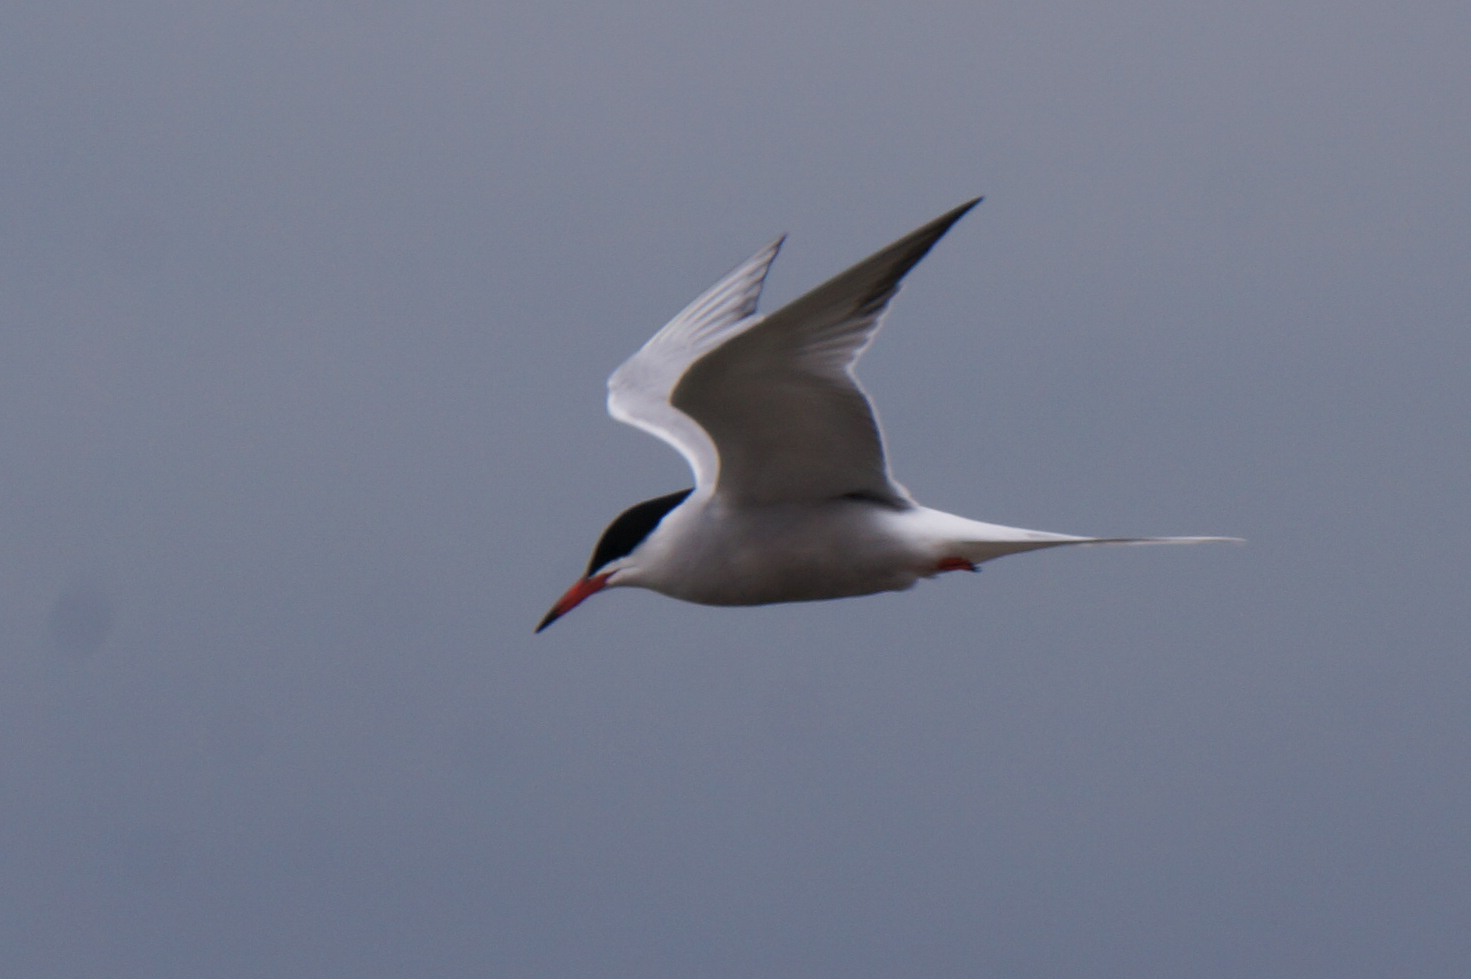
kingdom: Animalia
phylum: Chordata
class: Aves
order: Charadriiformes
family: Laridae
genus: Sterna
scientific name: Sterna hirundo
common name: Common tern
